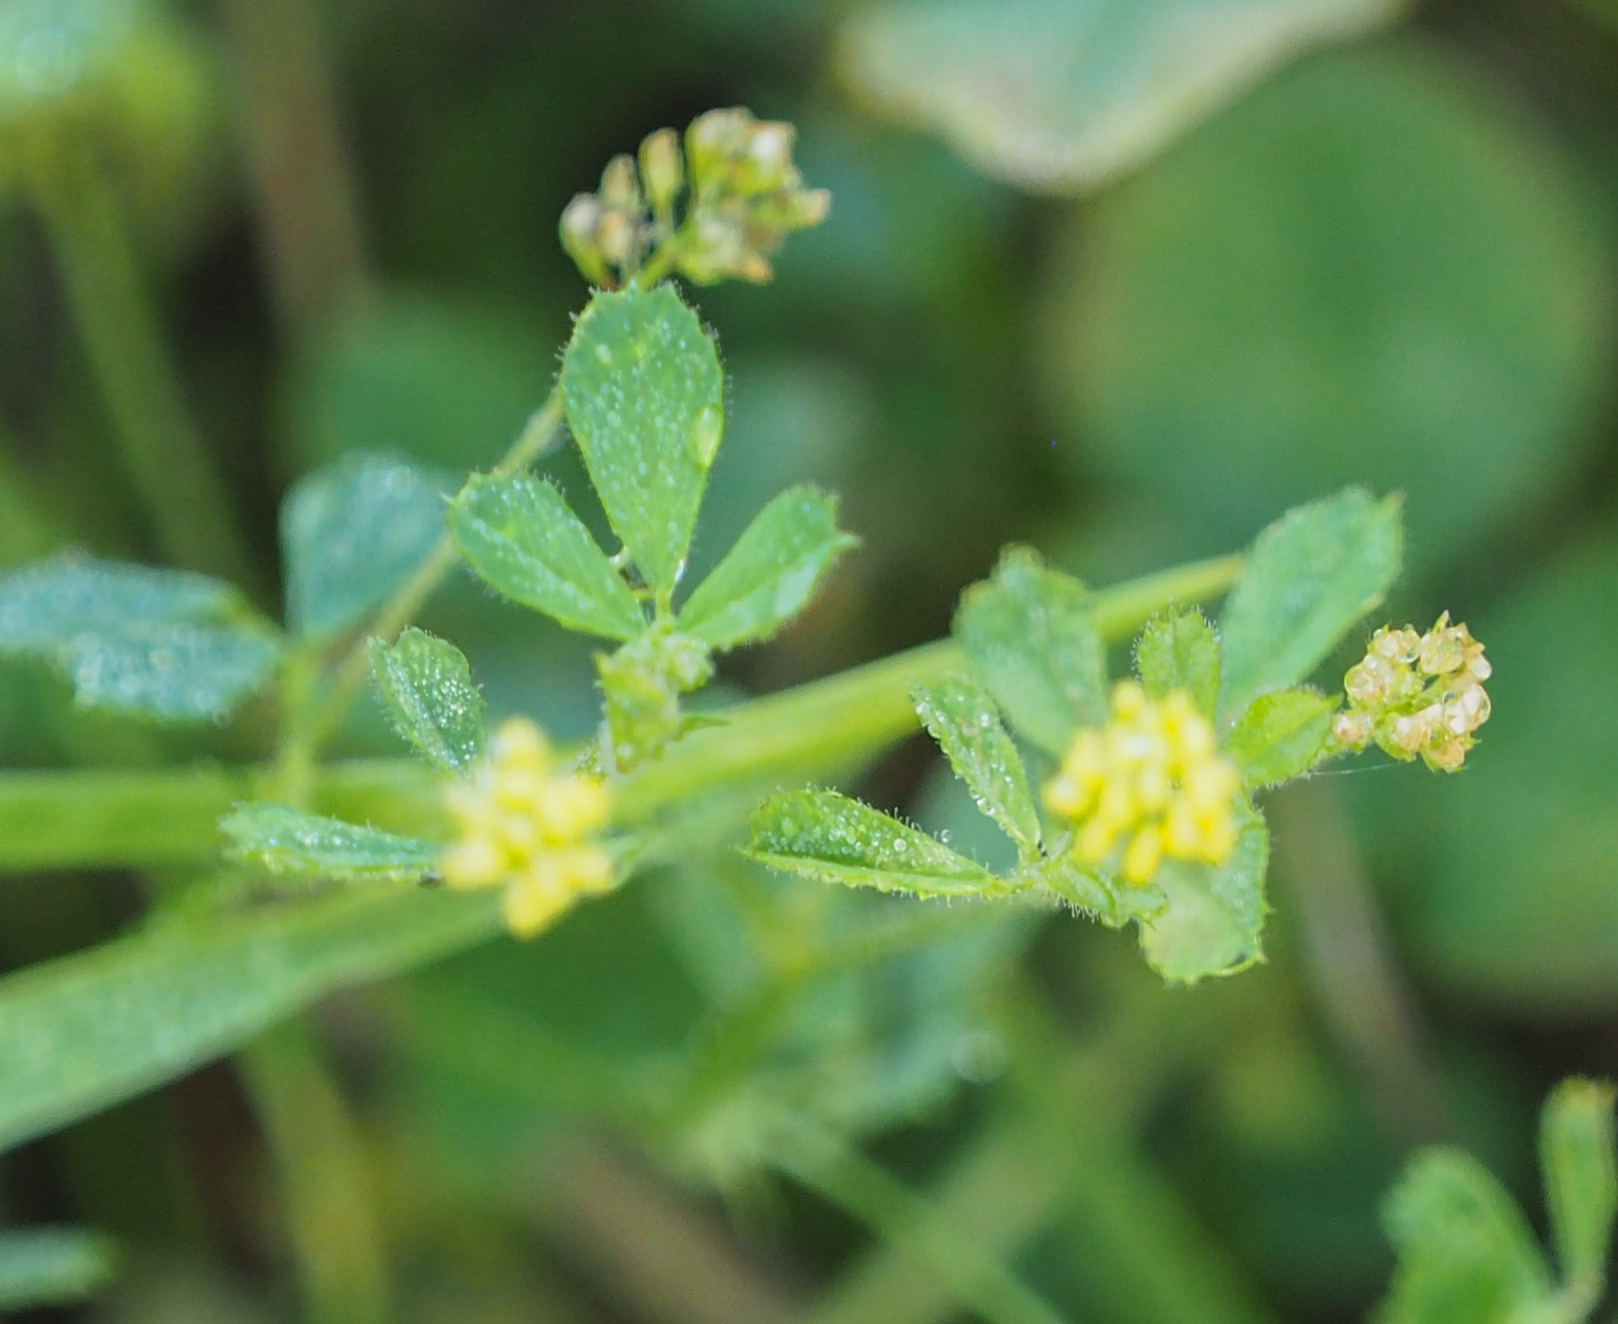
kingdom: Plantae
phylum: Tracheophyta
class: Magnoliopsida
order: Fabales
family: Fabaceae
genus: Medicago
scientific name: Medicago lupulina
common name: Black medick
